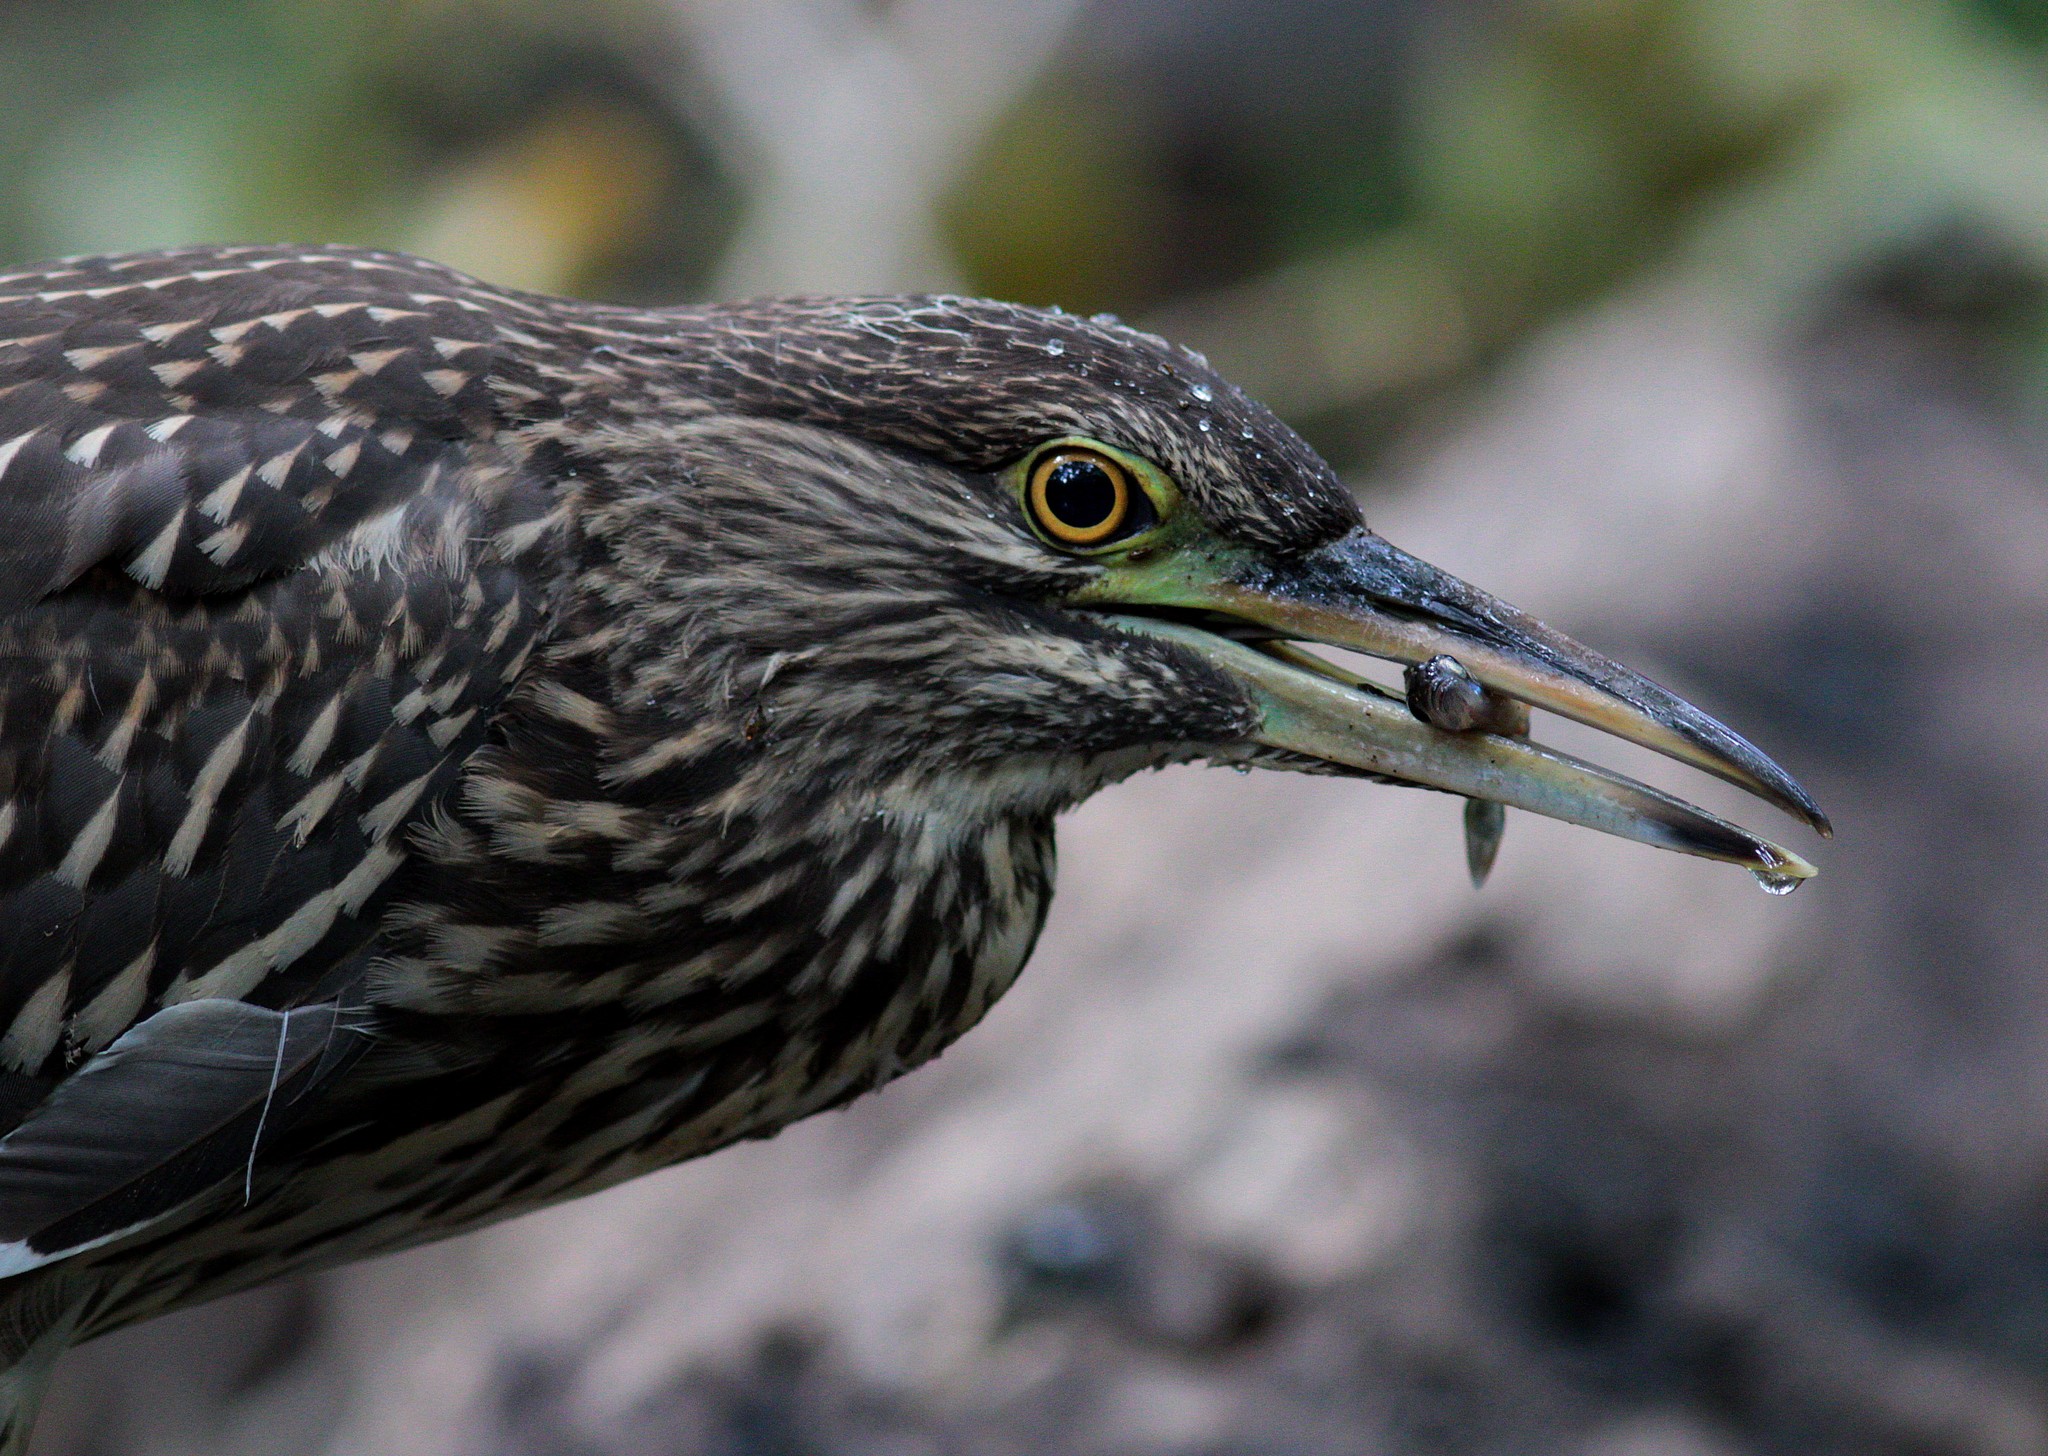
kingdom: Animalia
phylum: Chordata
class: Aves
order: Pelecaniformes
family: Ardeidae
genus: Nycticorax
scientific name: Nycticorax nycticorax
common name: Black-crowned night heron
